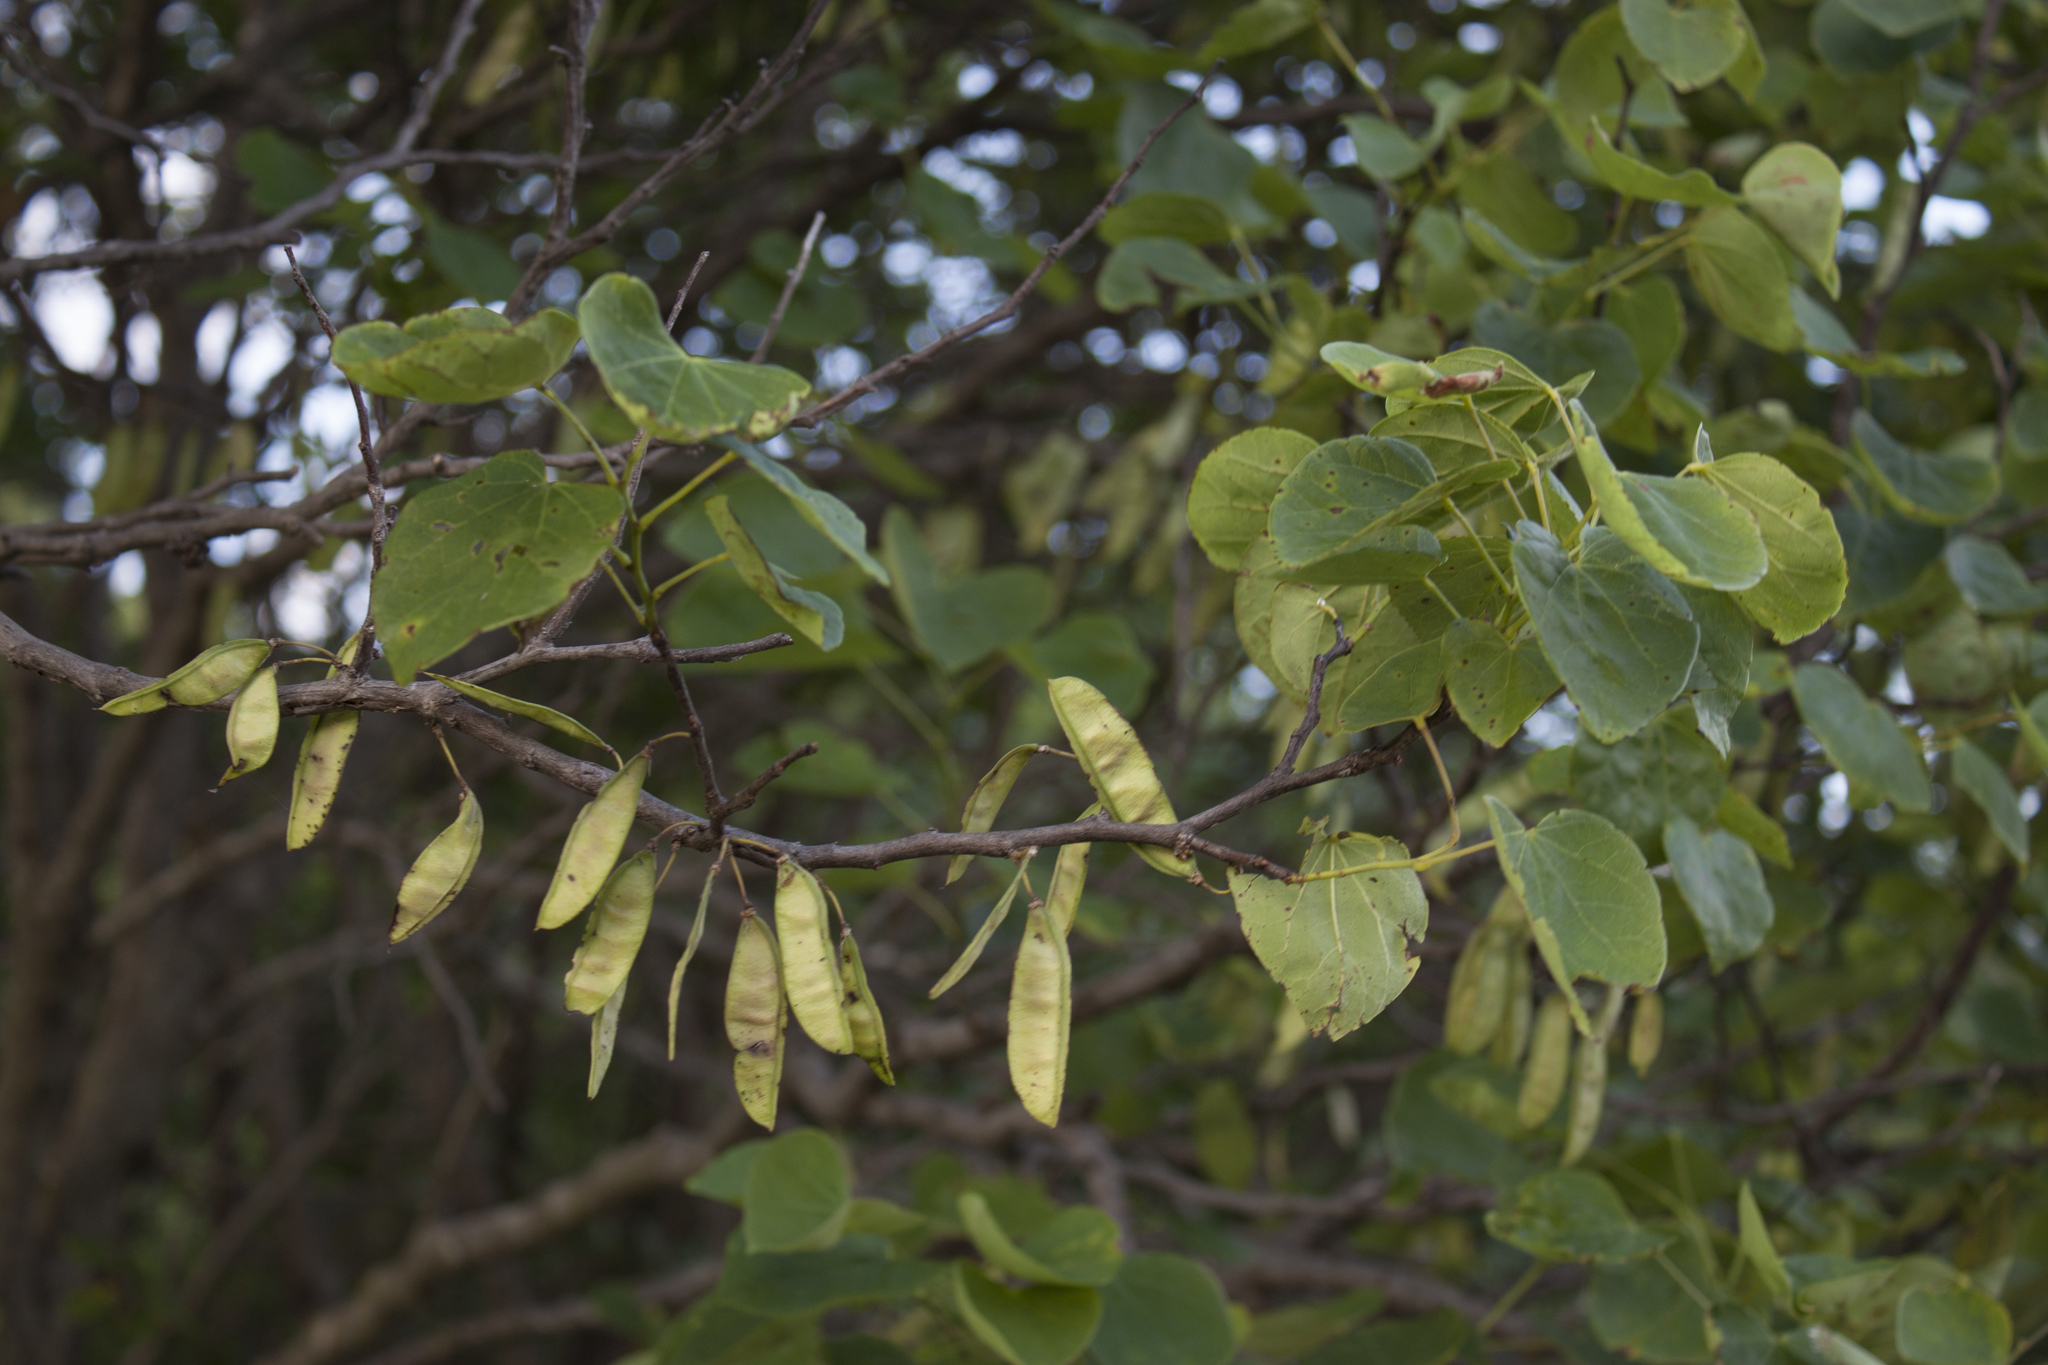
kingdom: Plantae
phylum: Tracheophyta
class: Magnoliopsida
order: Fabales
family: Fabaceae
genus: Cercis
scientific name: Cercis canadensis
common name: Eastern redbud
